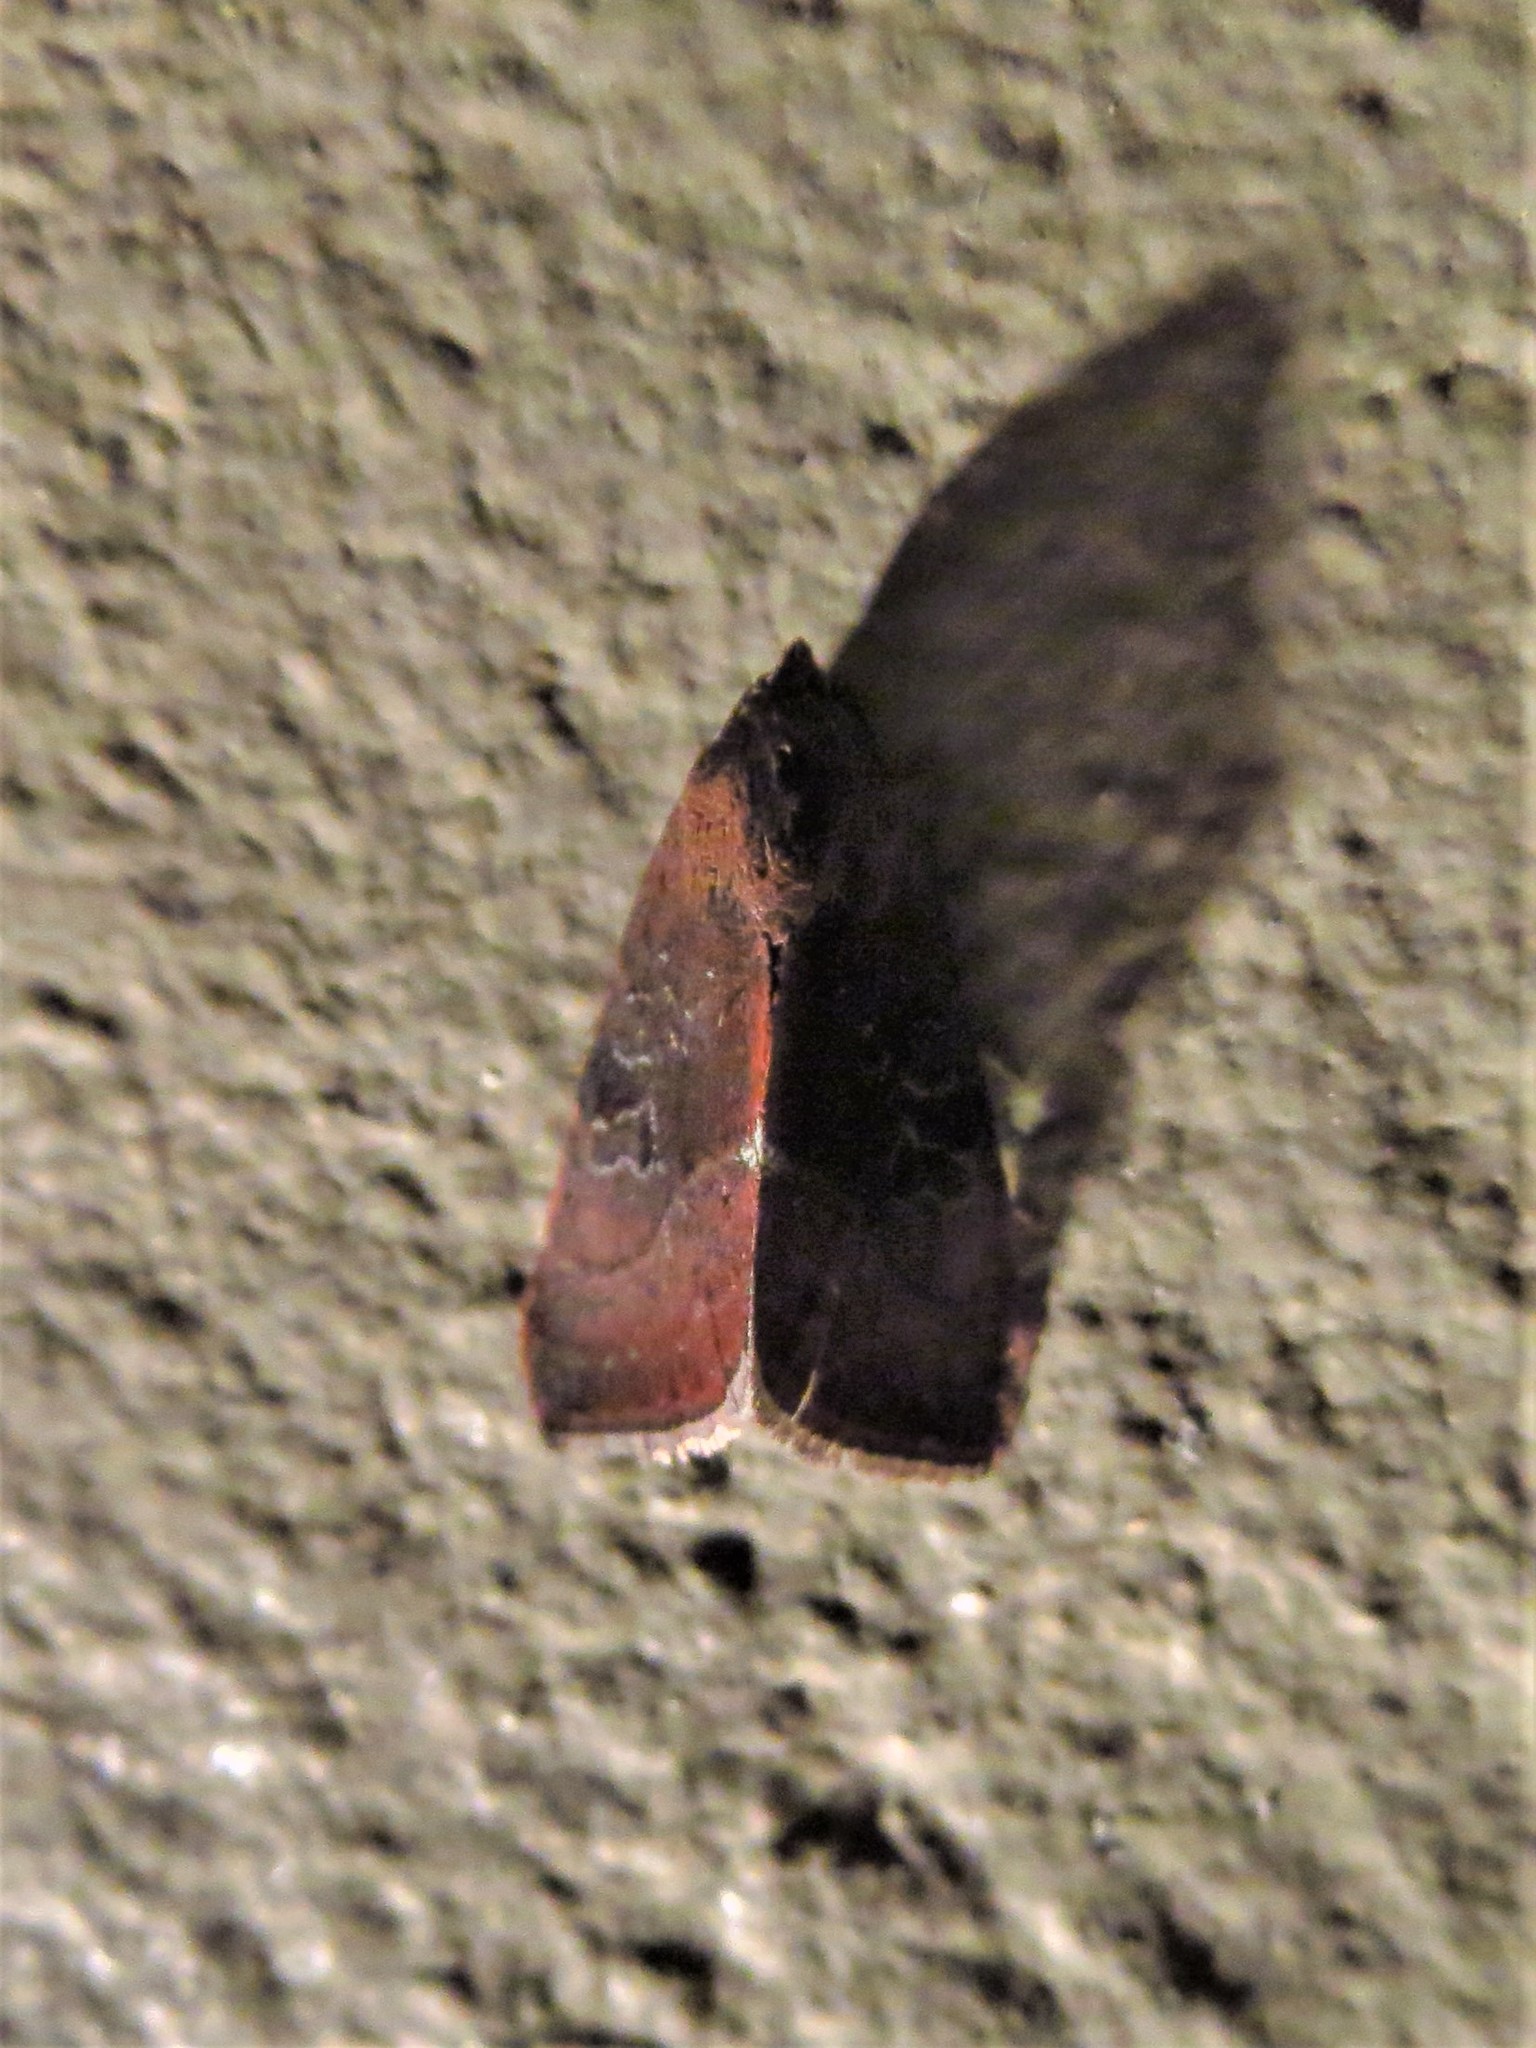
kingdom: Animalia
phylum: Arthropoda
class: Insecta
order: Lepidoptera
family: Noctuidae
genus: Galgula
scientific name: Galgula partita
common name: Wedgeling
